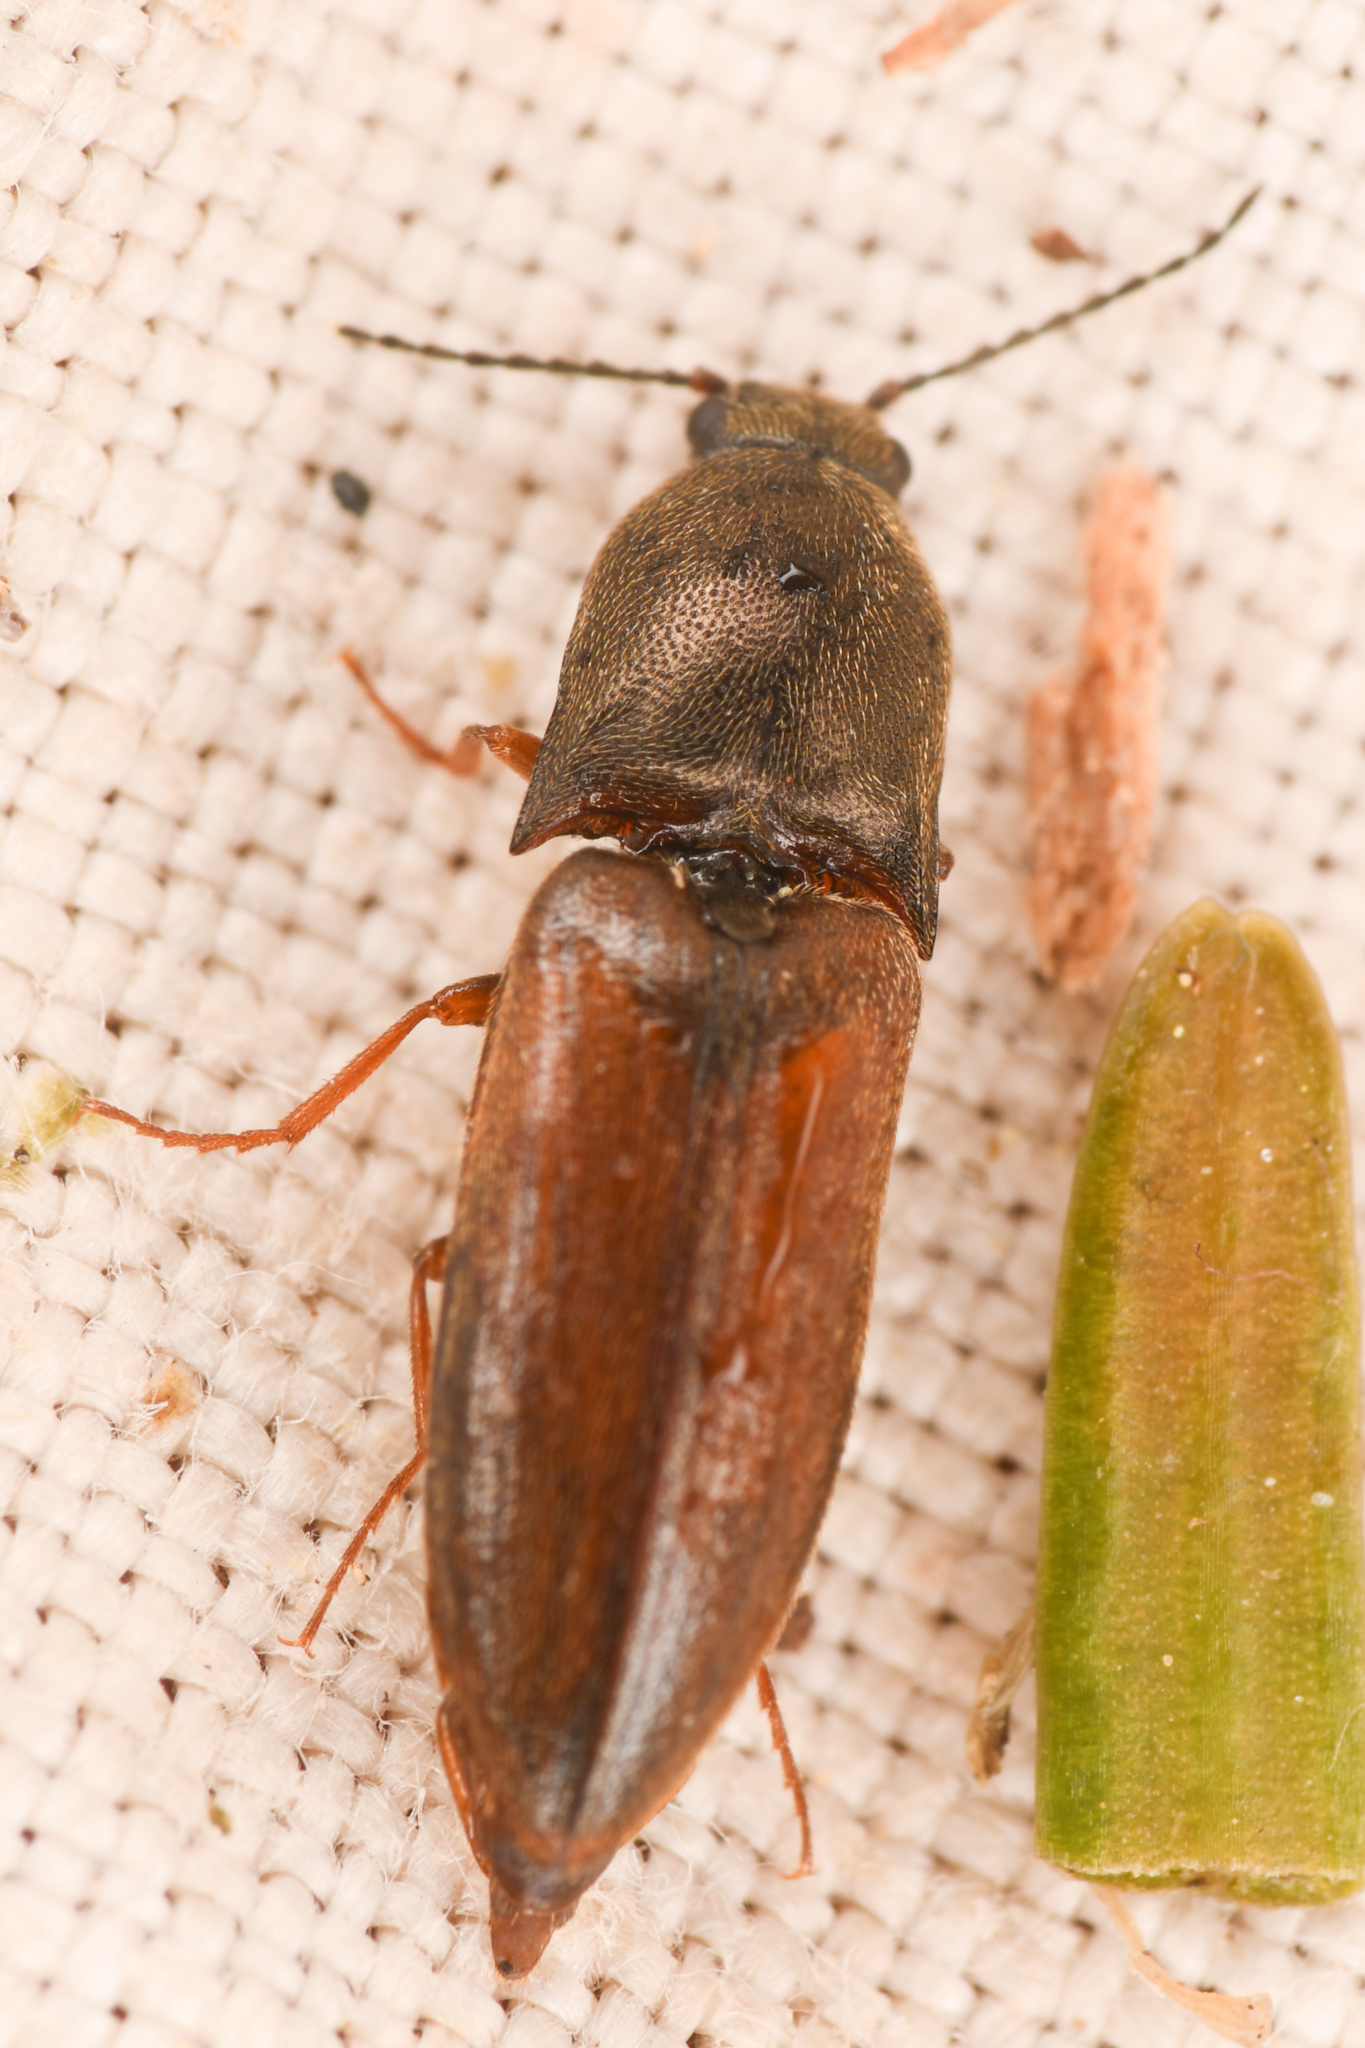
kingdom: Animalia
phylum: Arthropoda
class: Insecta
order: Coleoptera
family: Elateridae
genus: Sericus
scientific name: Sericus incongruus
